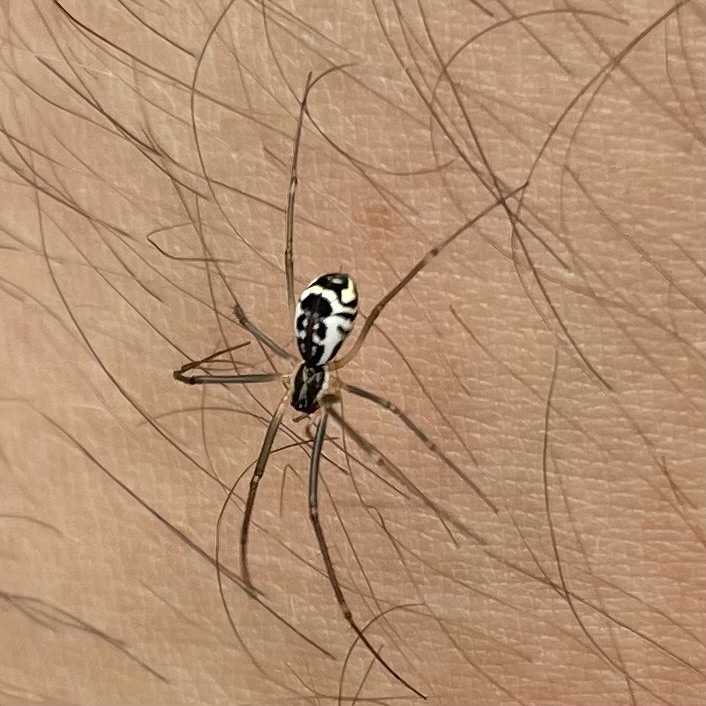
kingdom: Animalia
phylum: Arthropoda
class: Arachnida
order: Araneae
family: Linyphiidae
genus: Neriene
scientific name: Neriene radiata
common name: Filmy dome spider
